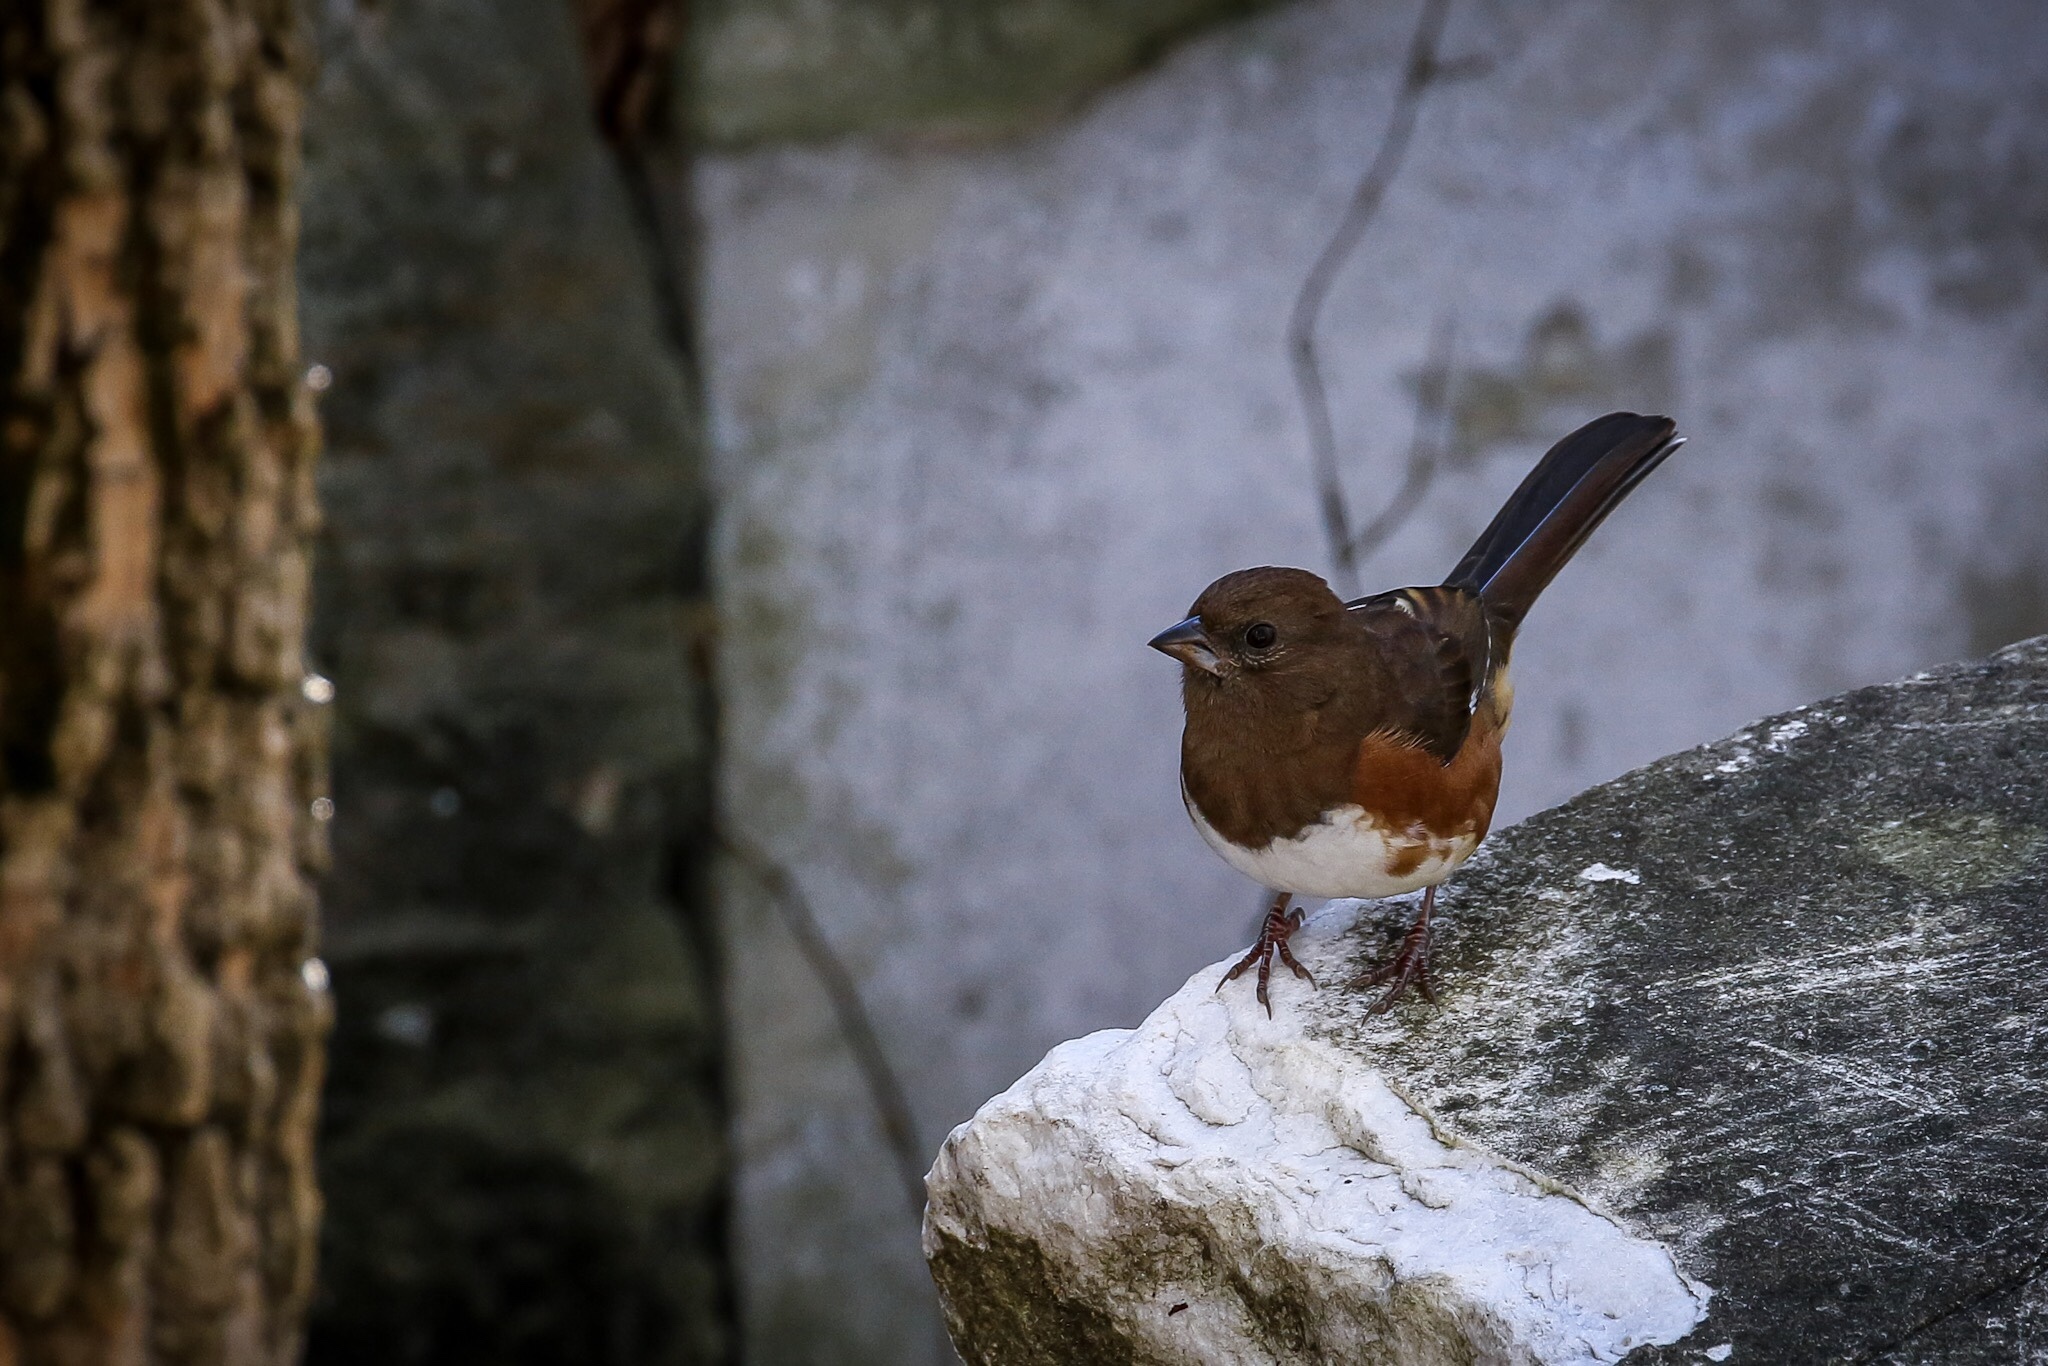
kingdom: Animalia
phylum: Chordata
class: Aves
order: Passeriformes
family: Passerellidae
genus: Pipilo
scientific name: Pipilo erythrophthalmus
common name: Eastern towhee
